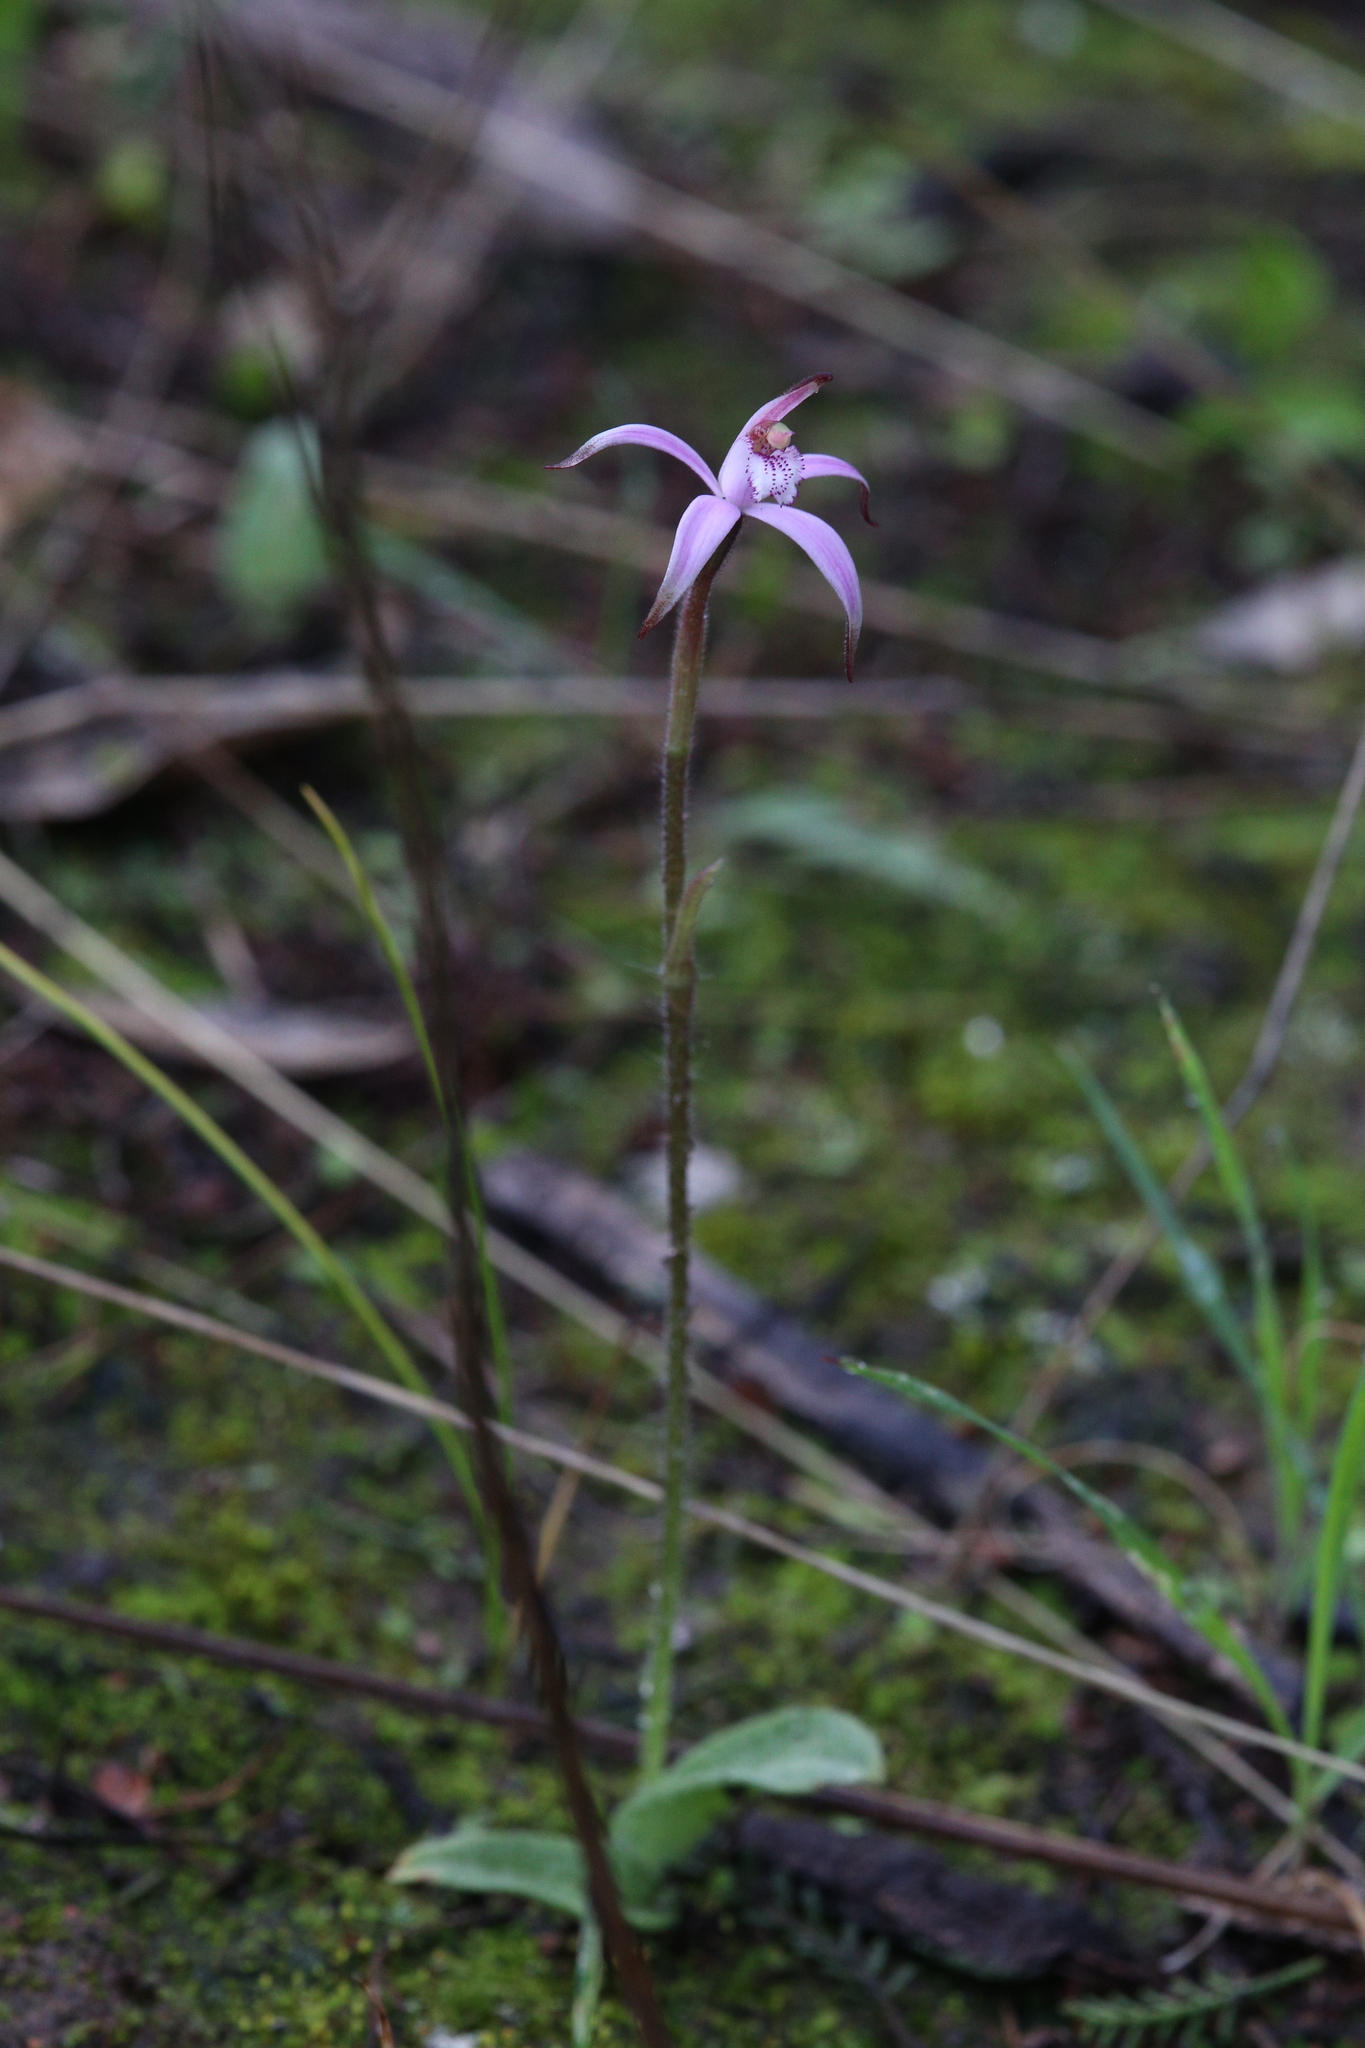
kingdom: Plantae
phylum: Tracheophyta
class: Liliopsida
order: Asparagales
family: Orchidaceae
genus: Caladenia
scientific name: Caladenia hirta
